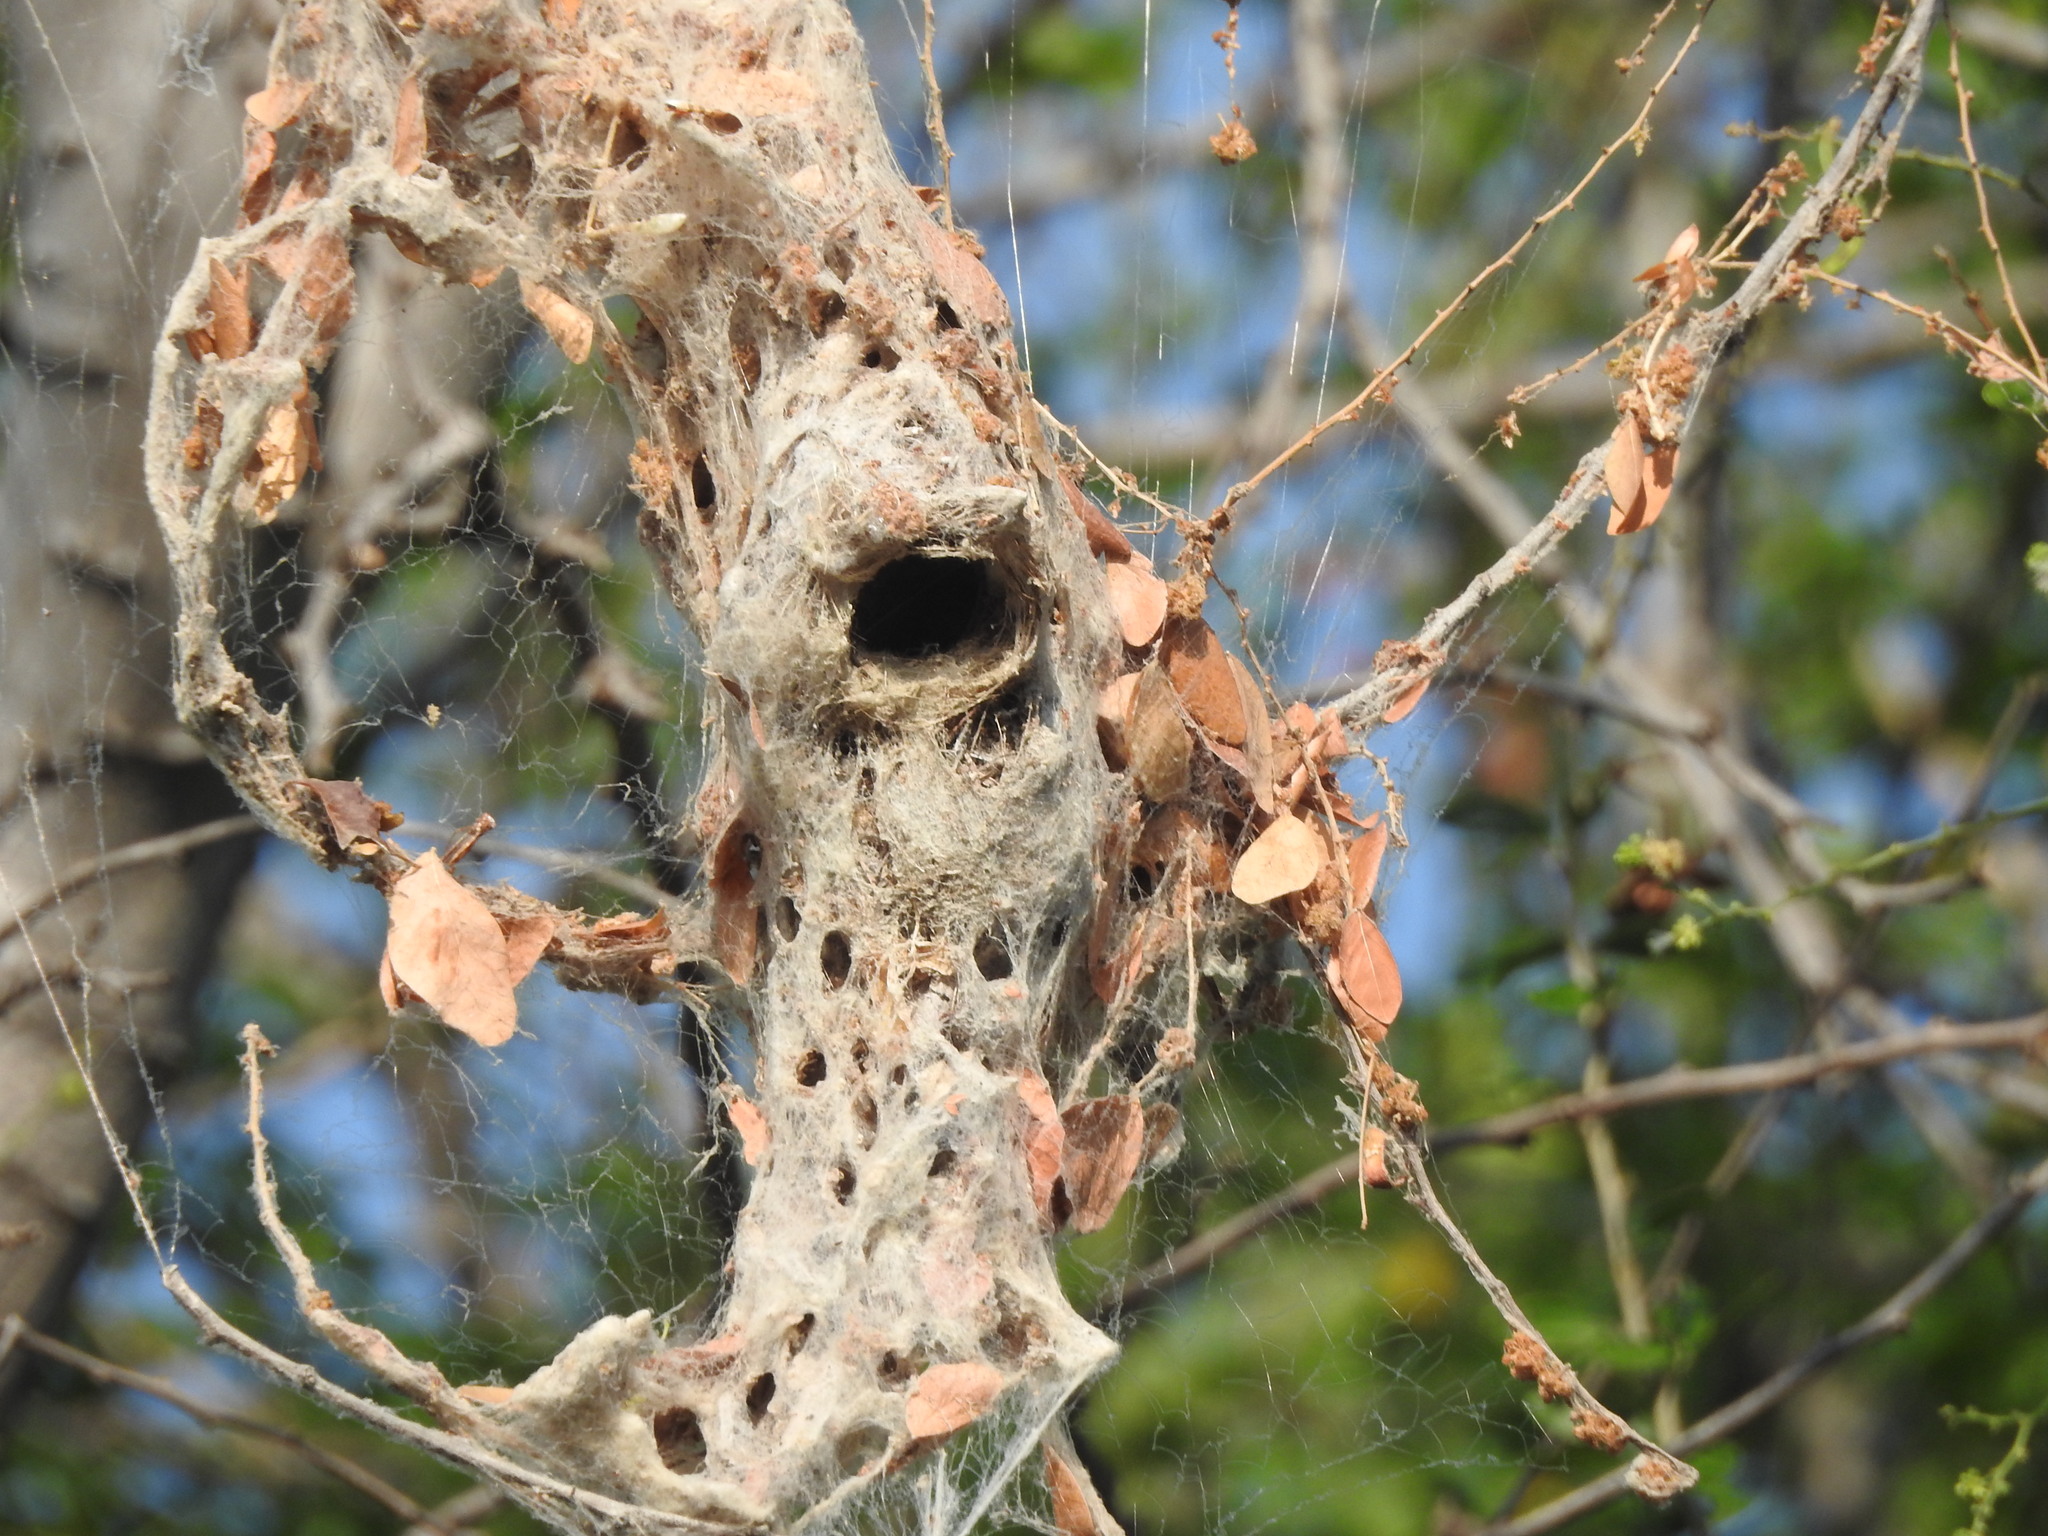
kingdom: Animalia
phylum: Chordata
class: Aves
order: Passeriformes
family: Nectariniidae
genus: Cinnyris
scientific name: Cinnyris asiaticus
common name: Purple sunbird
